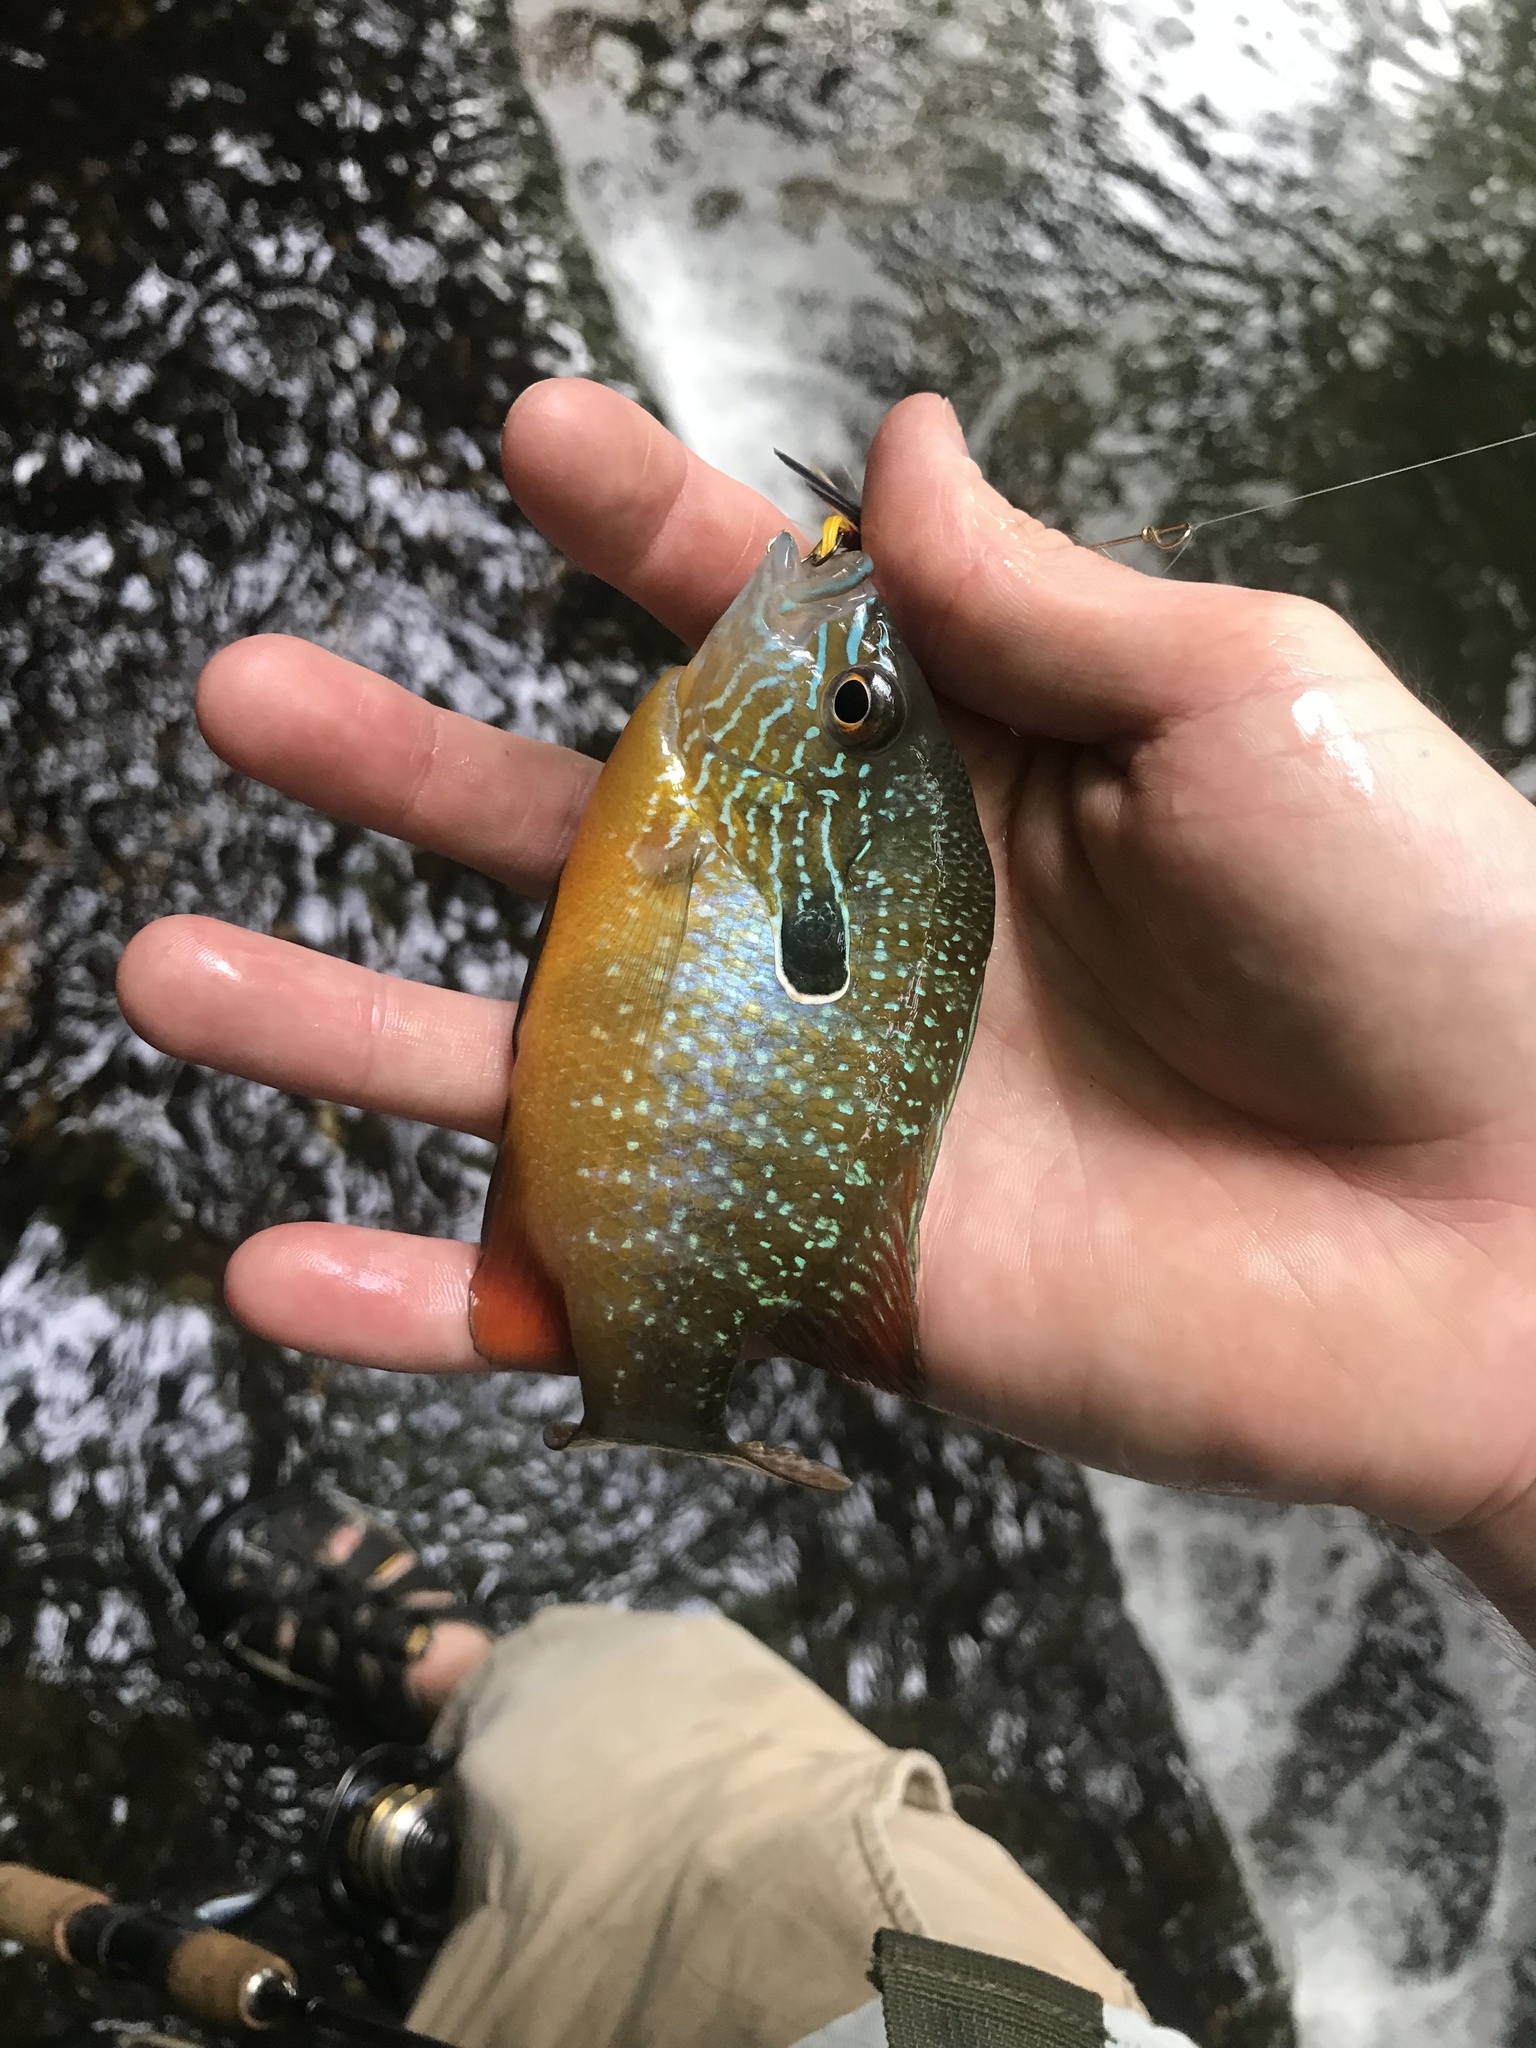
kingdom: Animalia
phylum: Chordata
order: Perciformes
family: Centrarchidae
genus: Lepomis
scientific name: Lepomis megalotis
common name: Longear sunfish
